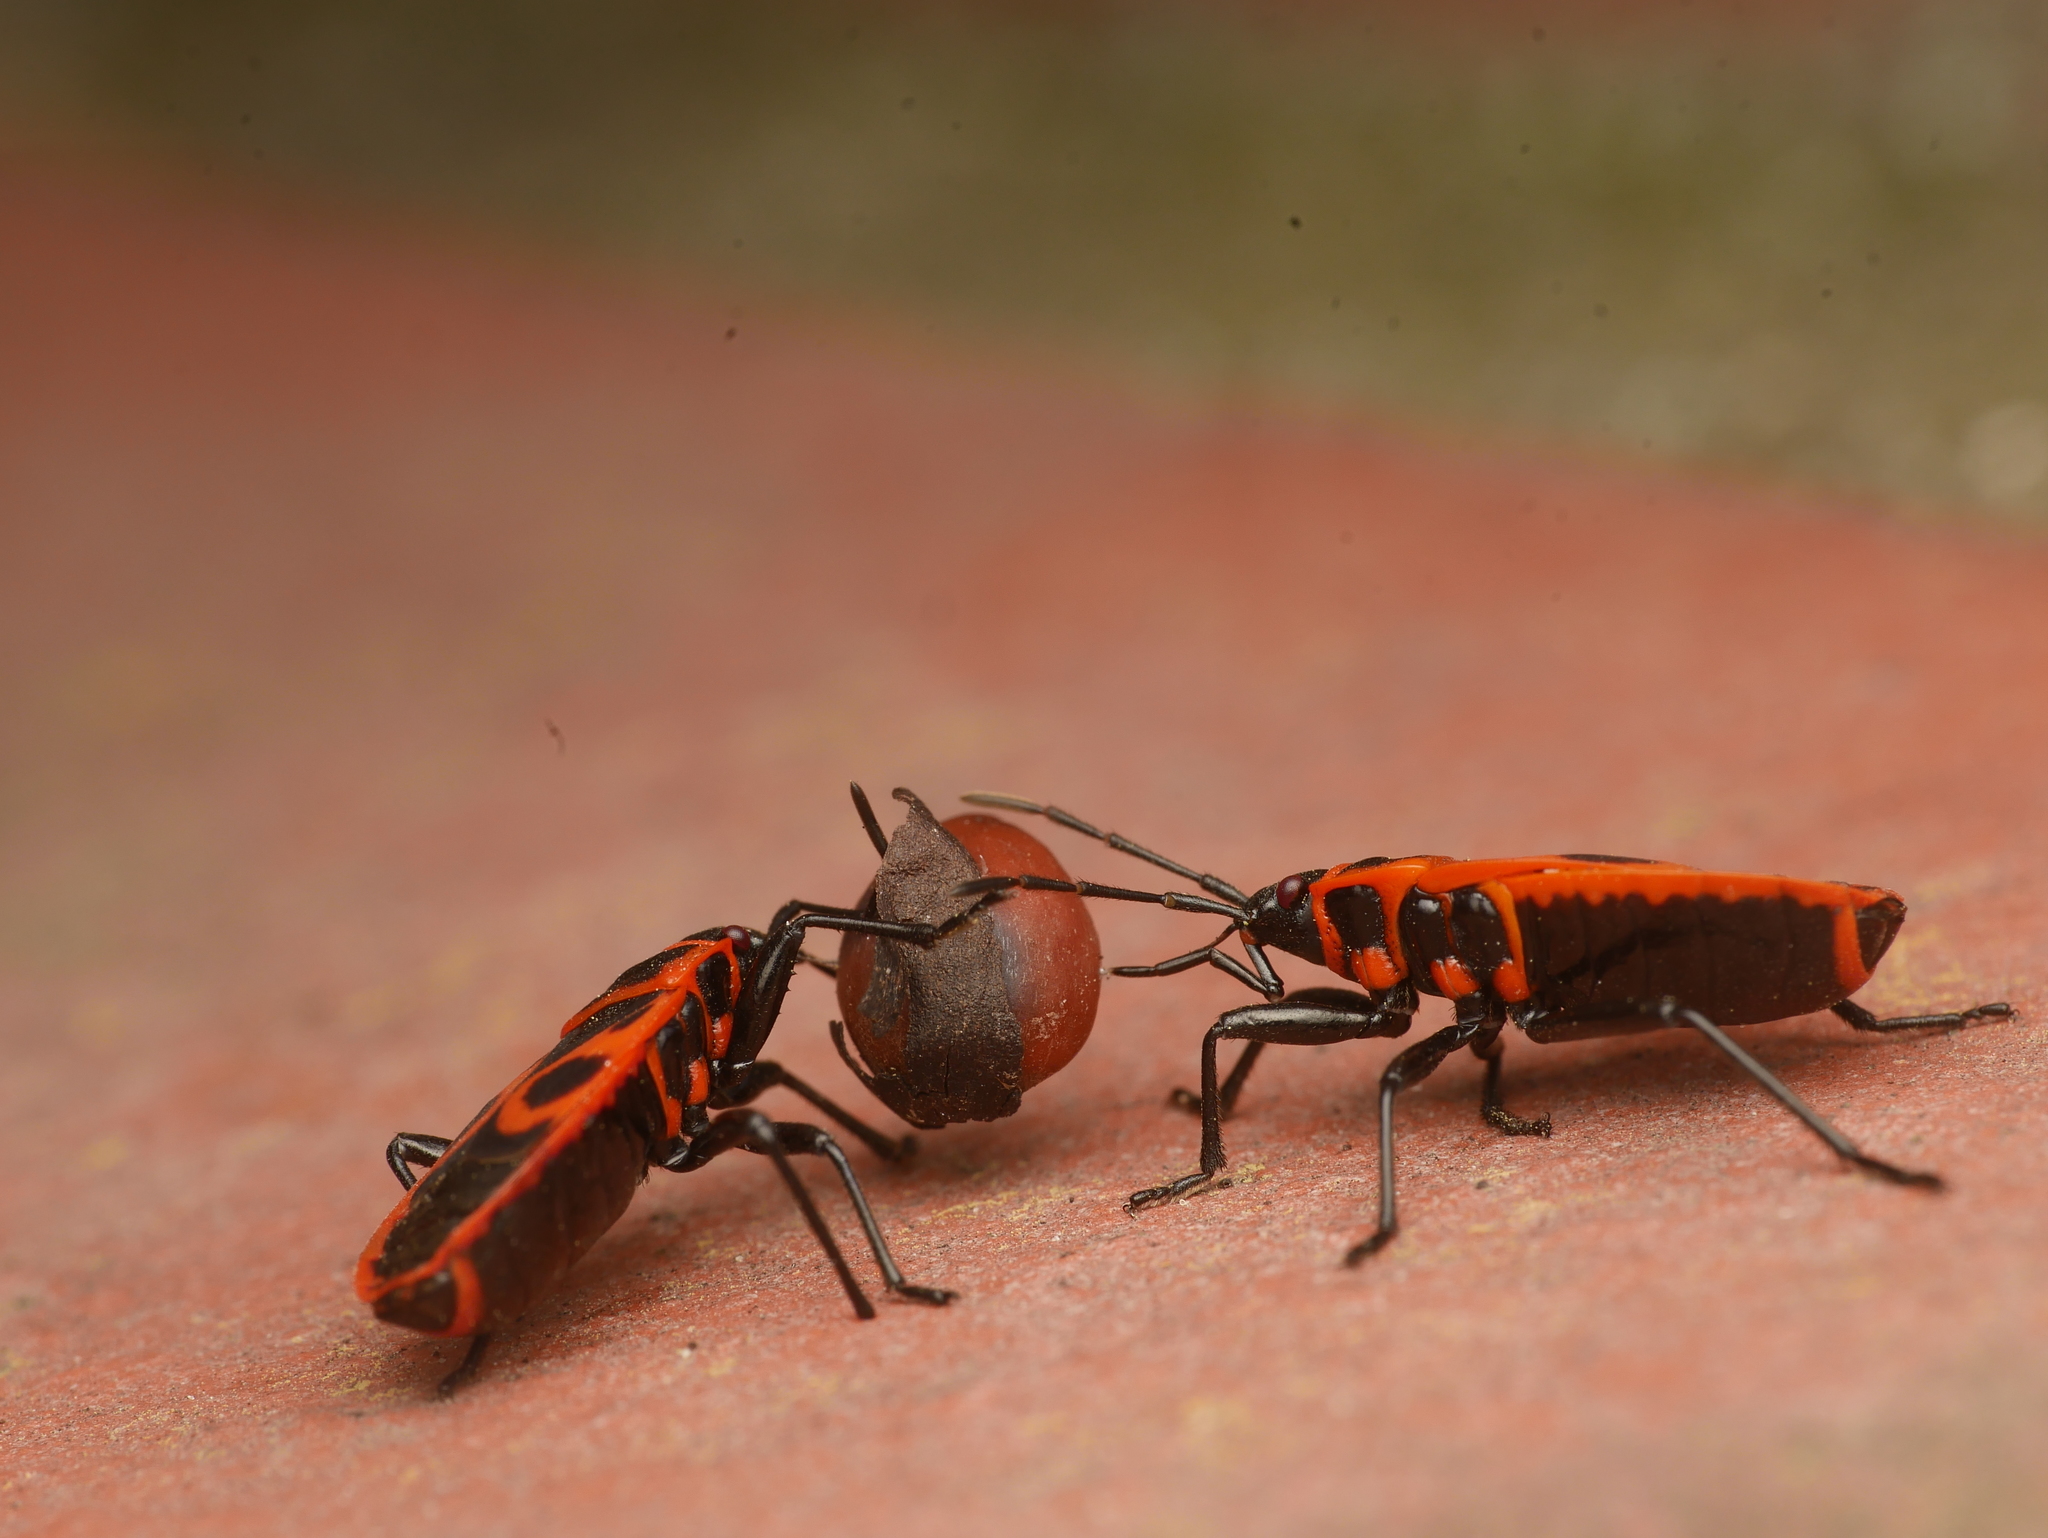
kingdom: Animalia
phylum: Arthropoda
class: Insecta
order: Hemiptera
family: Pyrrhocoridae
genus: Pyrrhocoris
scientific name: Pyrrhocoris apterus
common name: Firebug
